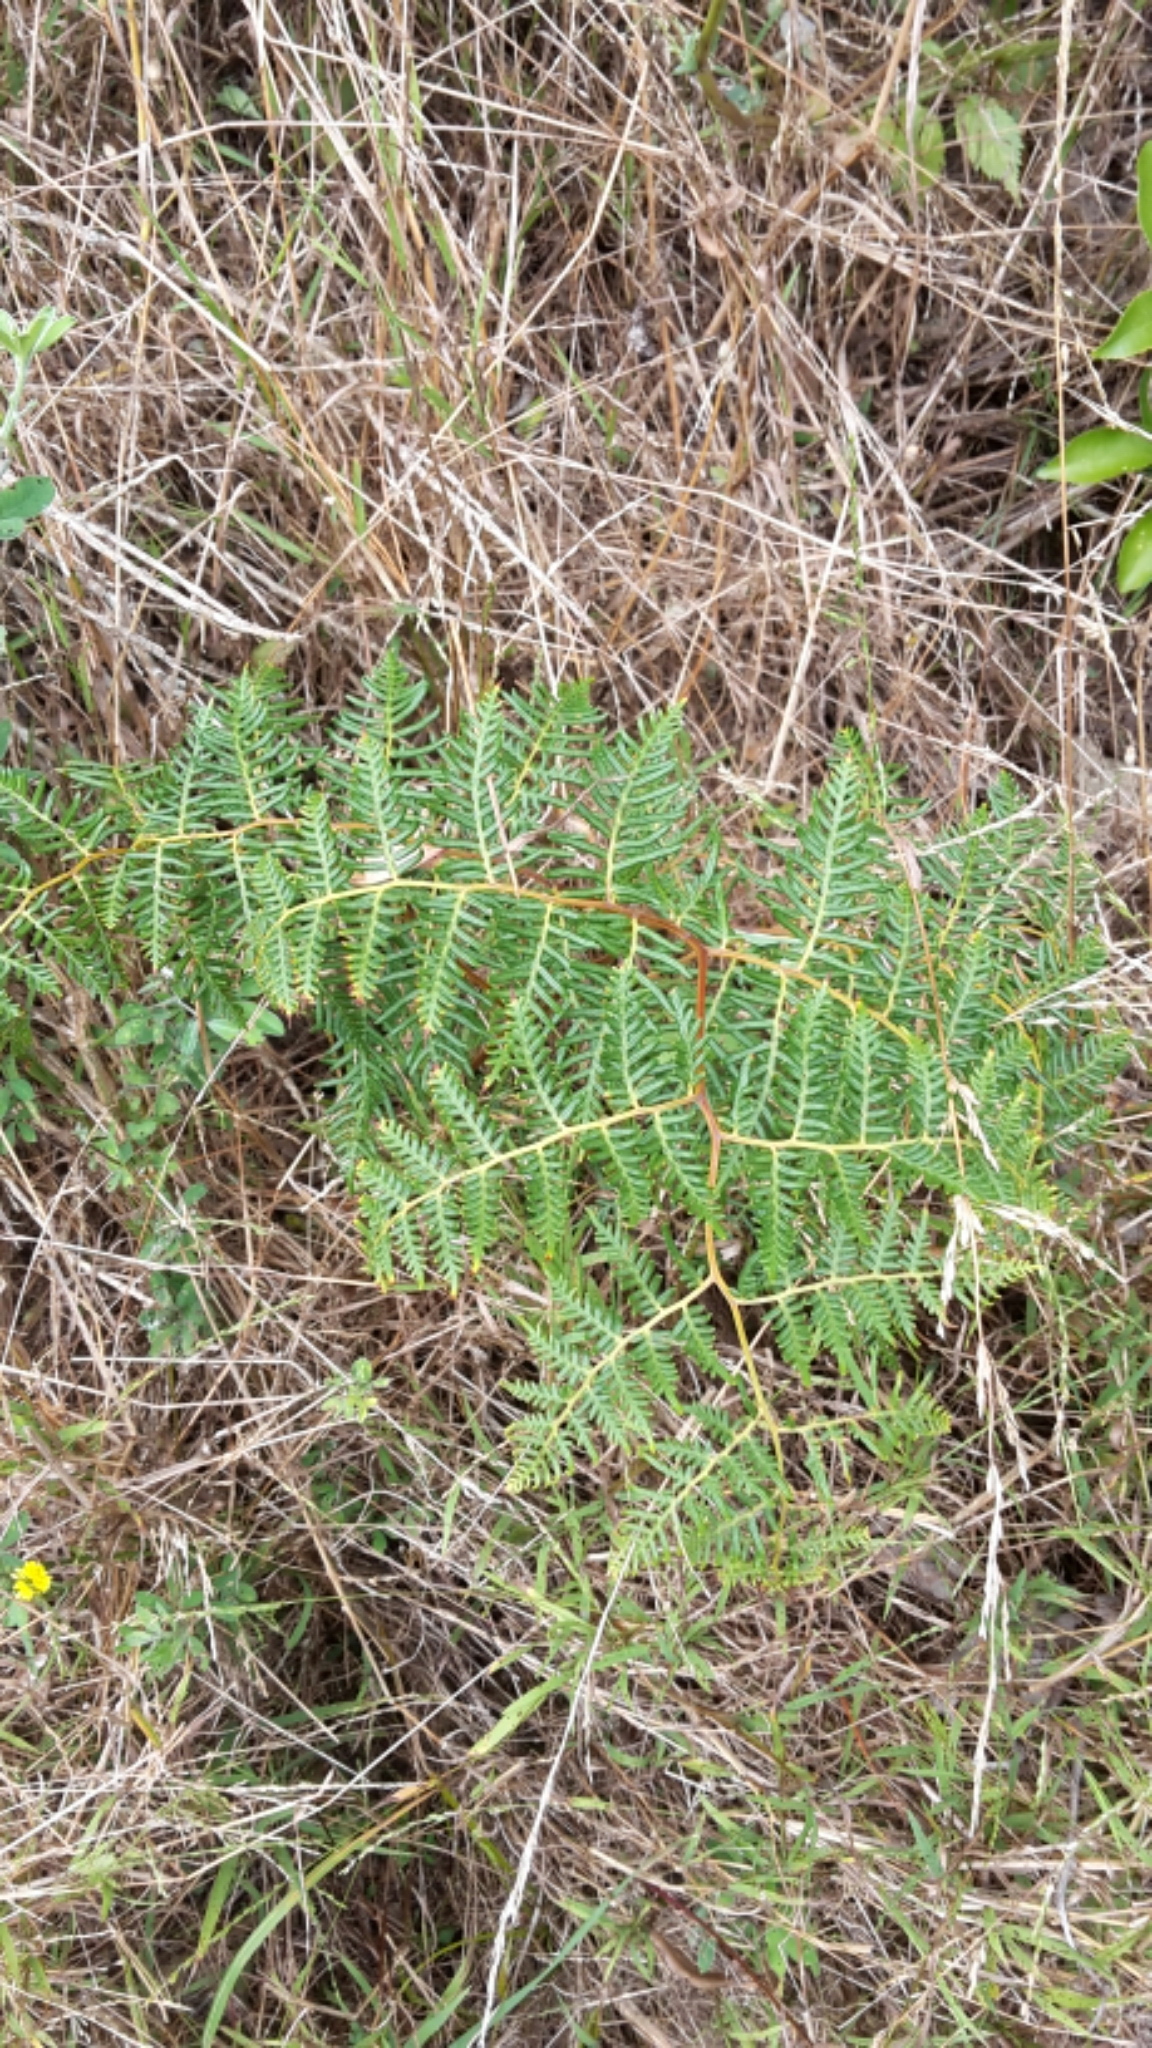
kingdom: Plantae
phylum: Tracheophyta
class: Polypodiopsida
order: Polypodiales
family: Dennstaedtiaceae
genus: Pteridium
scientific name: Pteridium esculentum
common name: Bracken fern
